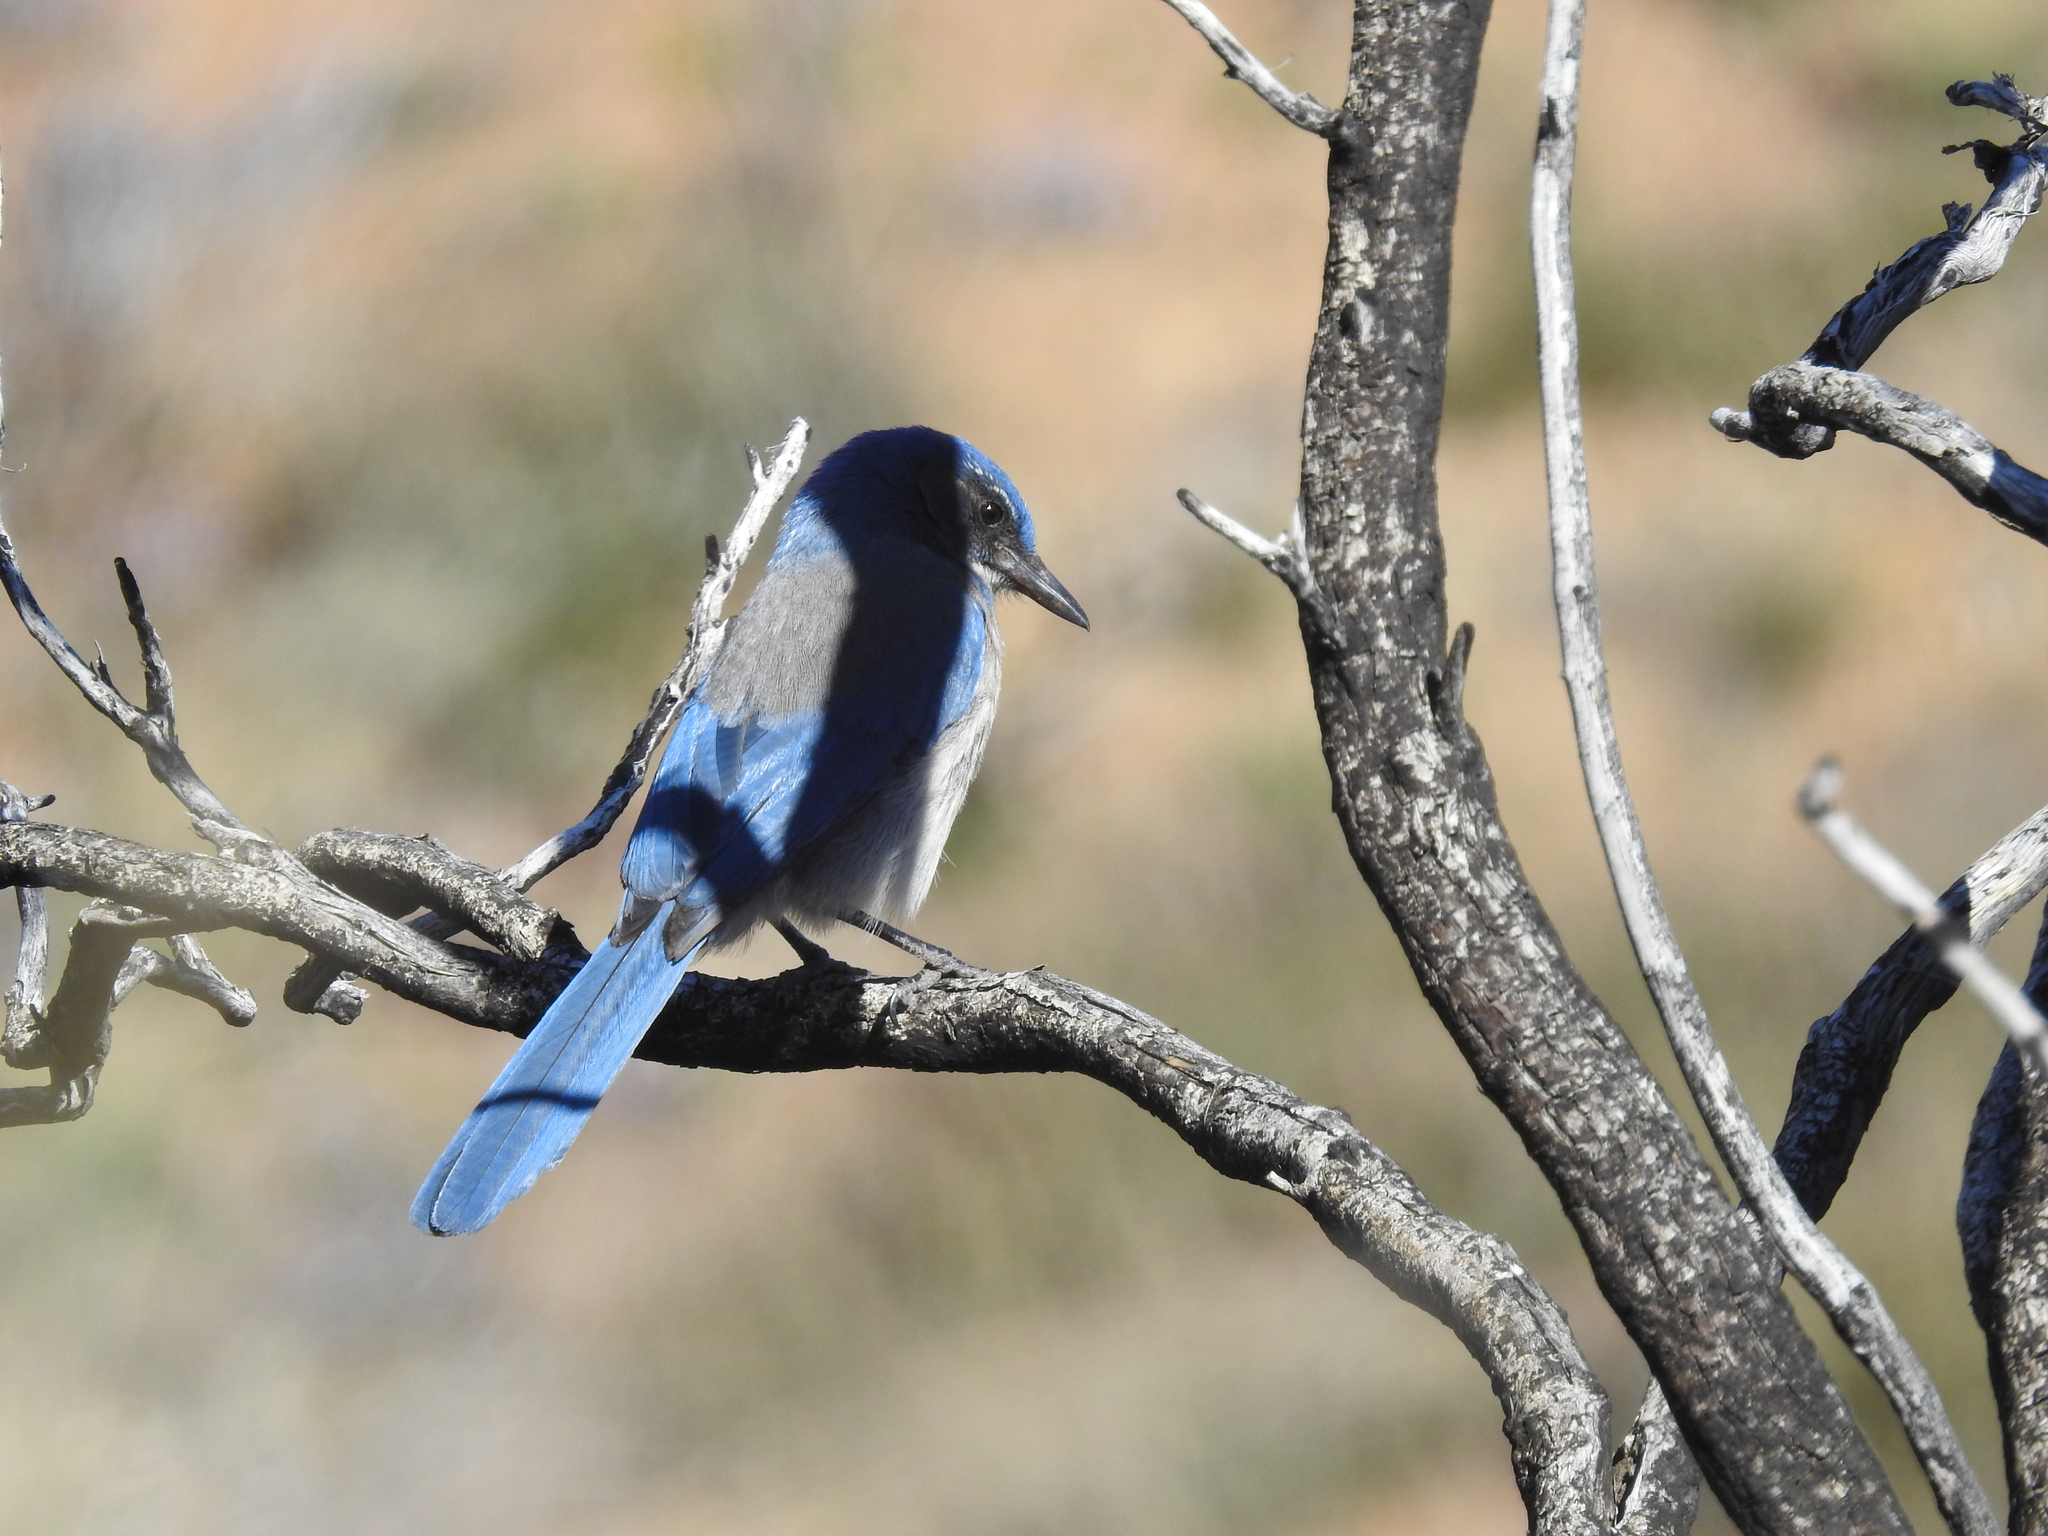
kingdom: Animalia
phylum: Chordata
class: Aves
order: Passeriformes
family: Corvidae
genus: Aphelocoma
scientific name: Aphelocoma woodhouseii
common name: Woodhouse's scrub-jay
